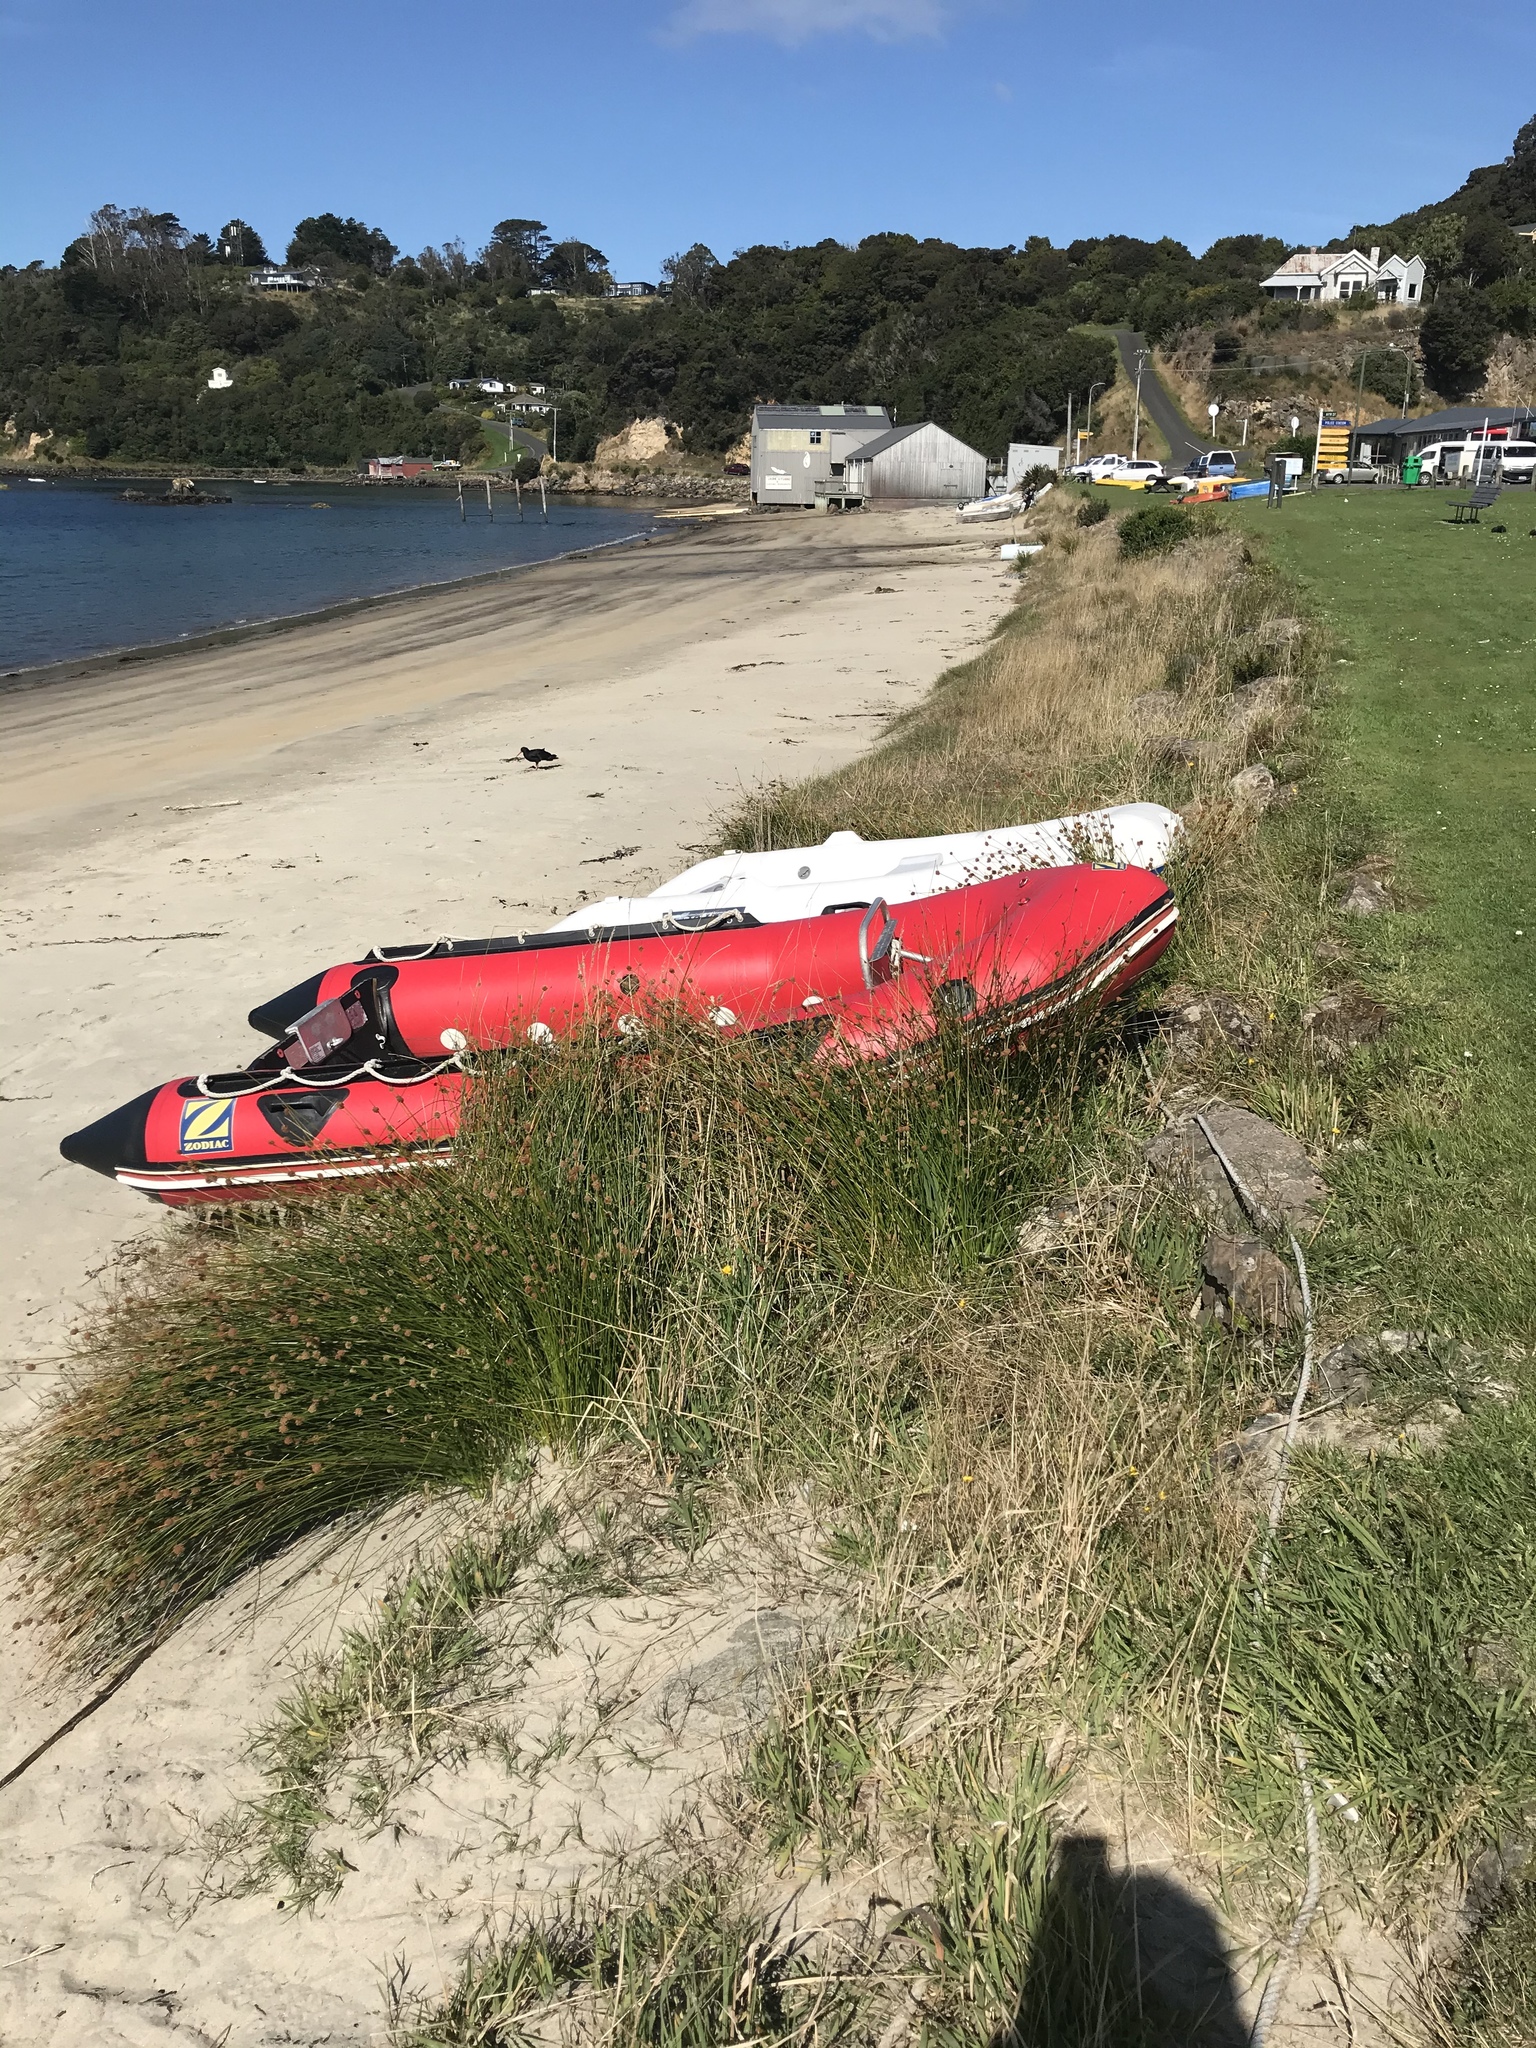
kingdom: Plantae
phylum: Tracheophyta
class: Liliopsida
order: Poales
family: Cyperaceae
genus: Ficinia
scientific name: Ficinia nodosa
